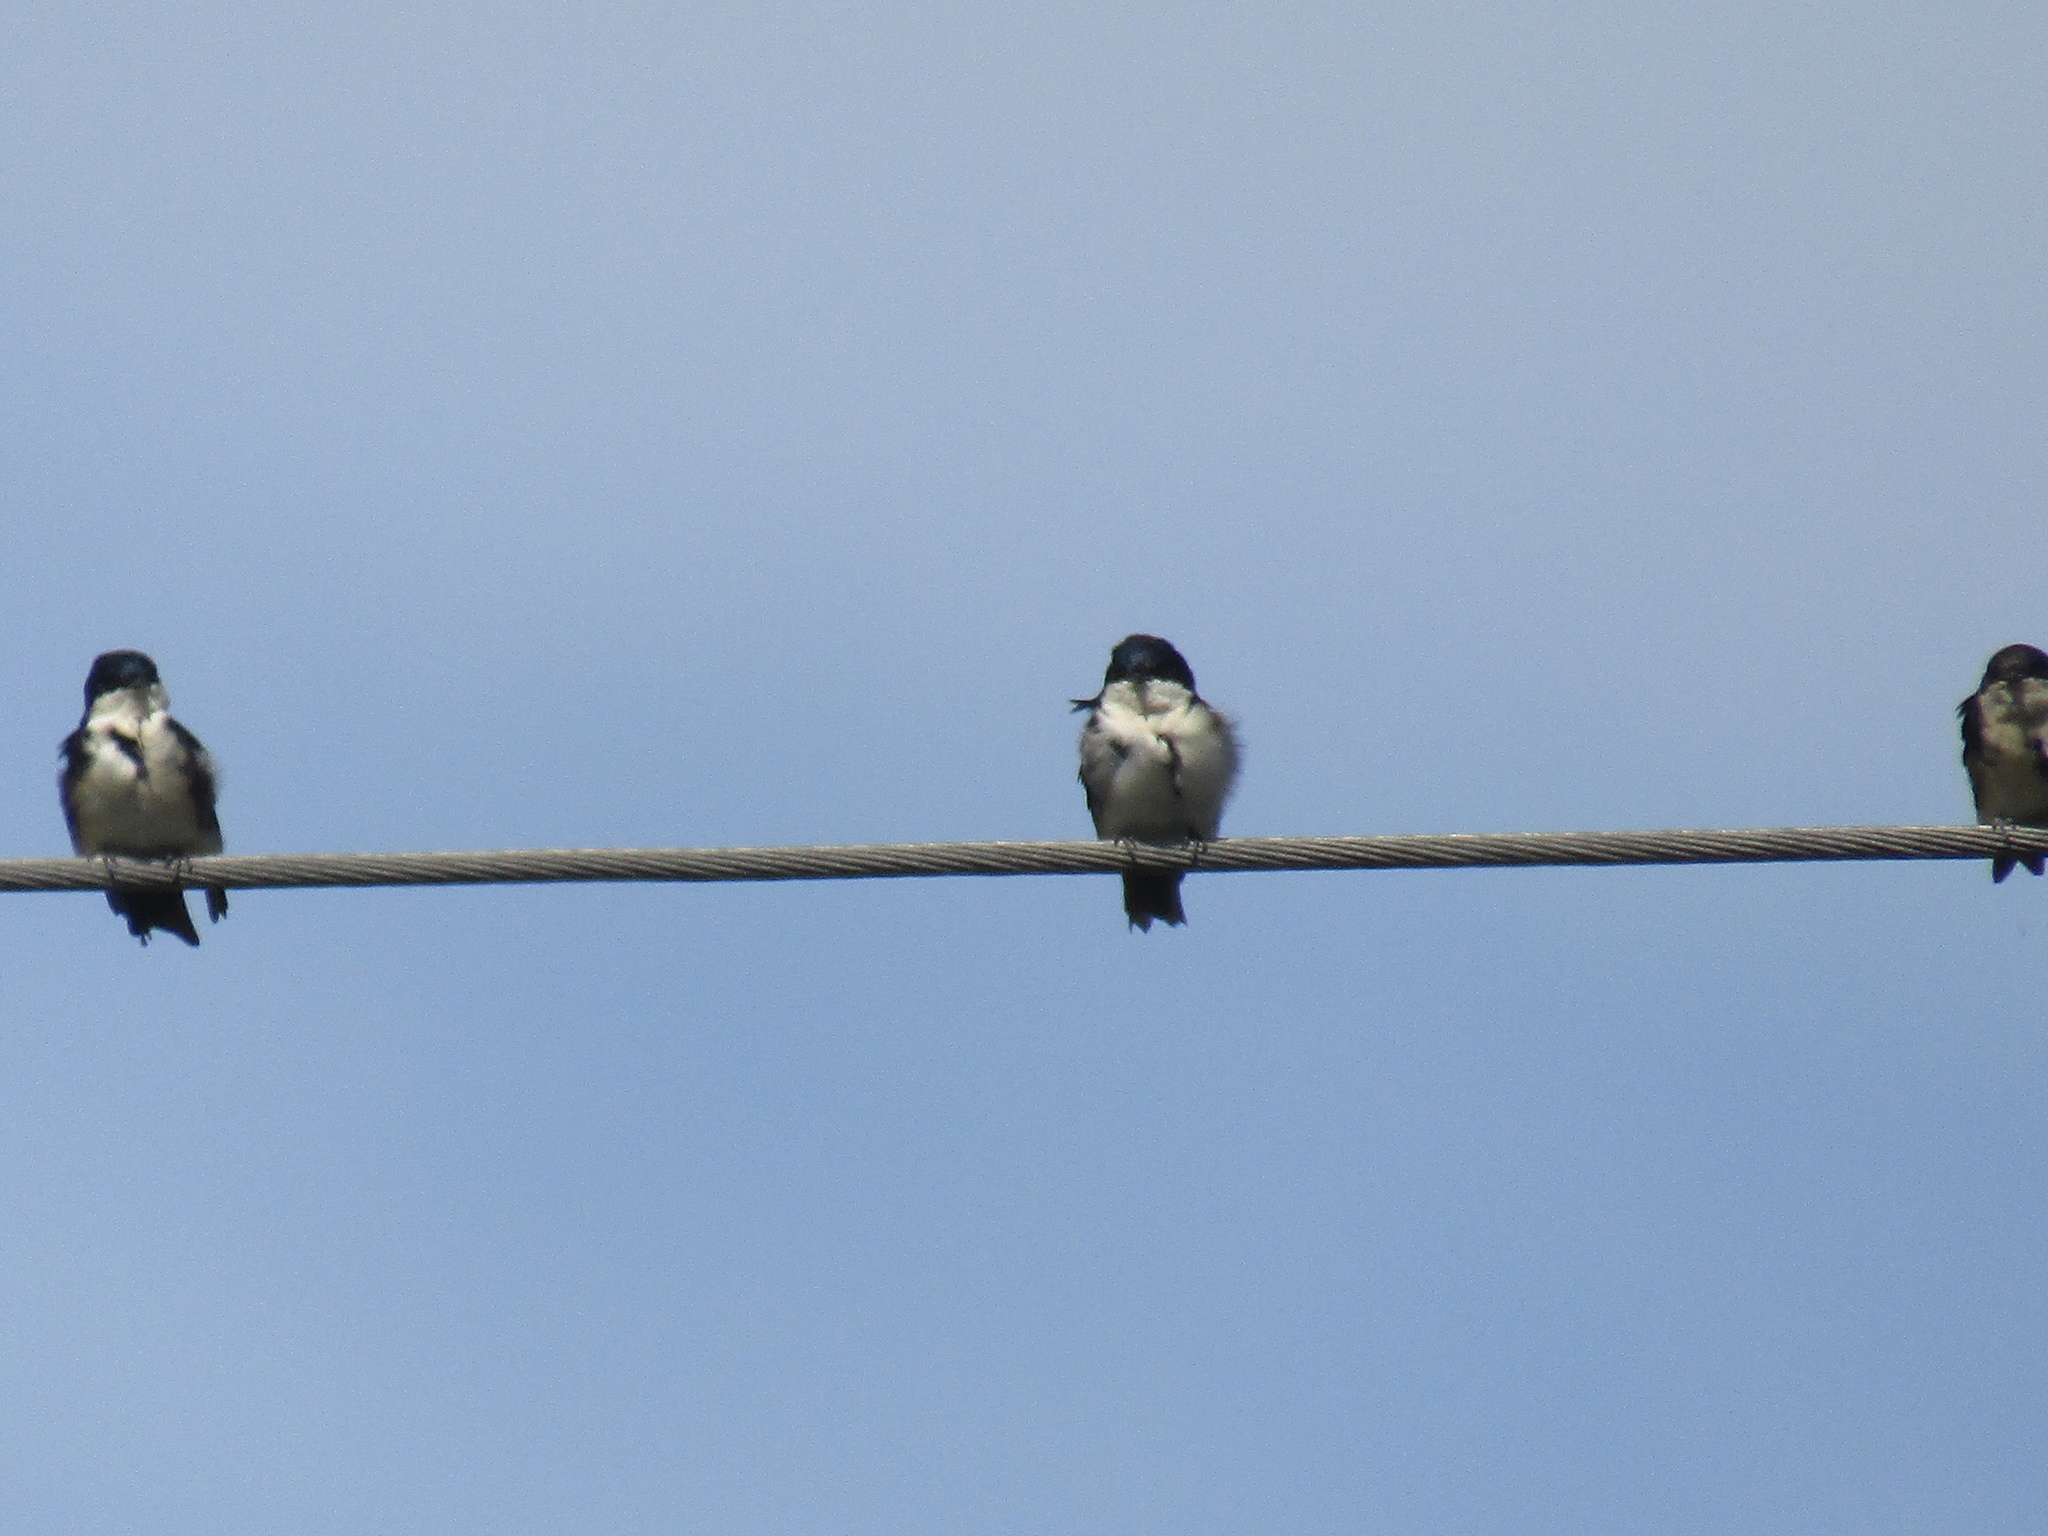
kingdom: Animalia
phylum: Chordata
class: Aves
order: Passeriformes
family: Hirundinidae
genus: Notiochelidon
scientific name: Notiochelidon cyanoleuca
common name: Blue-and-white swallow
